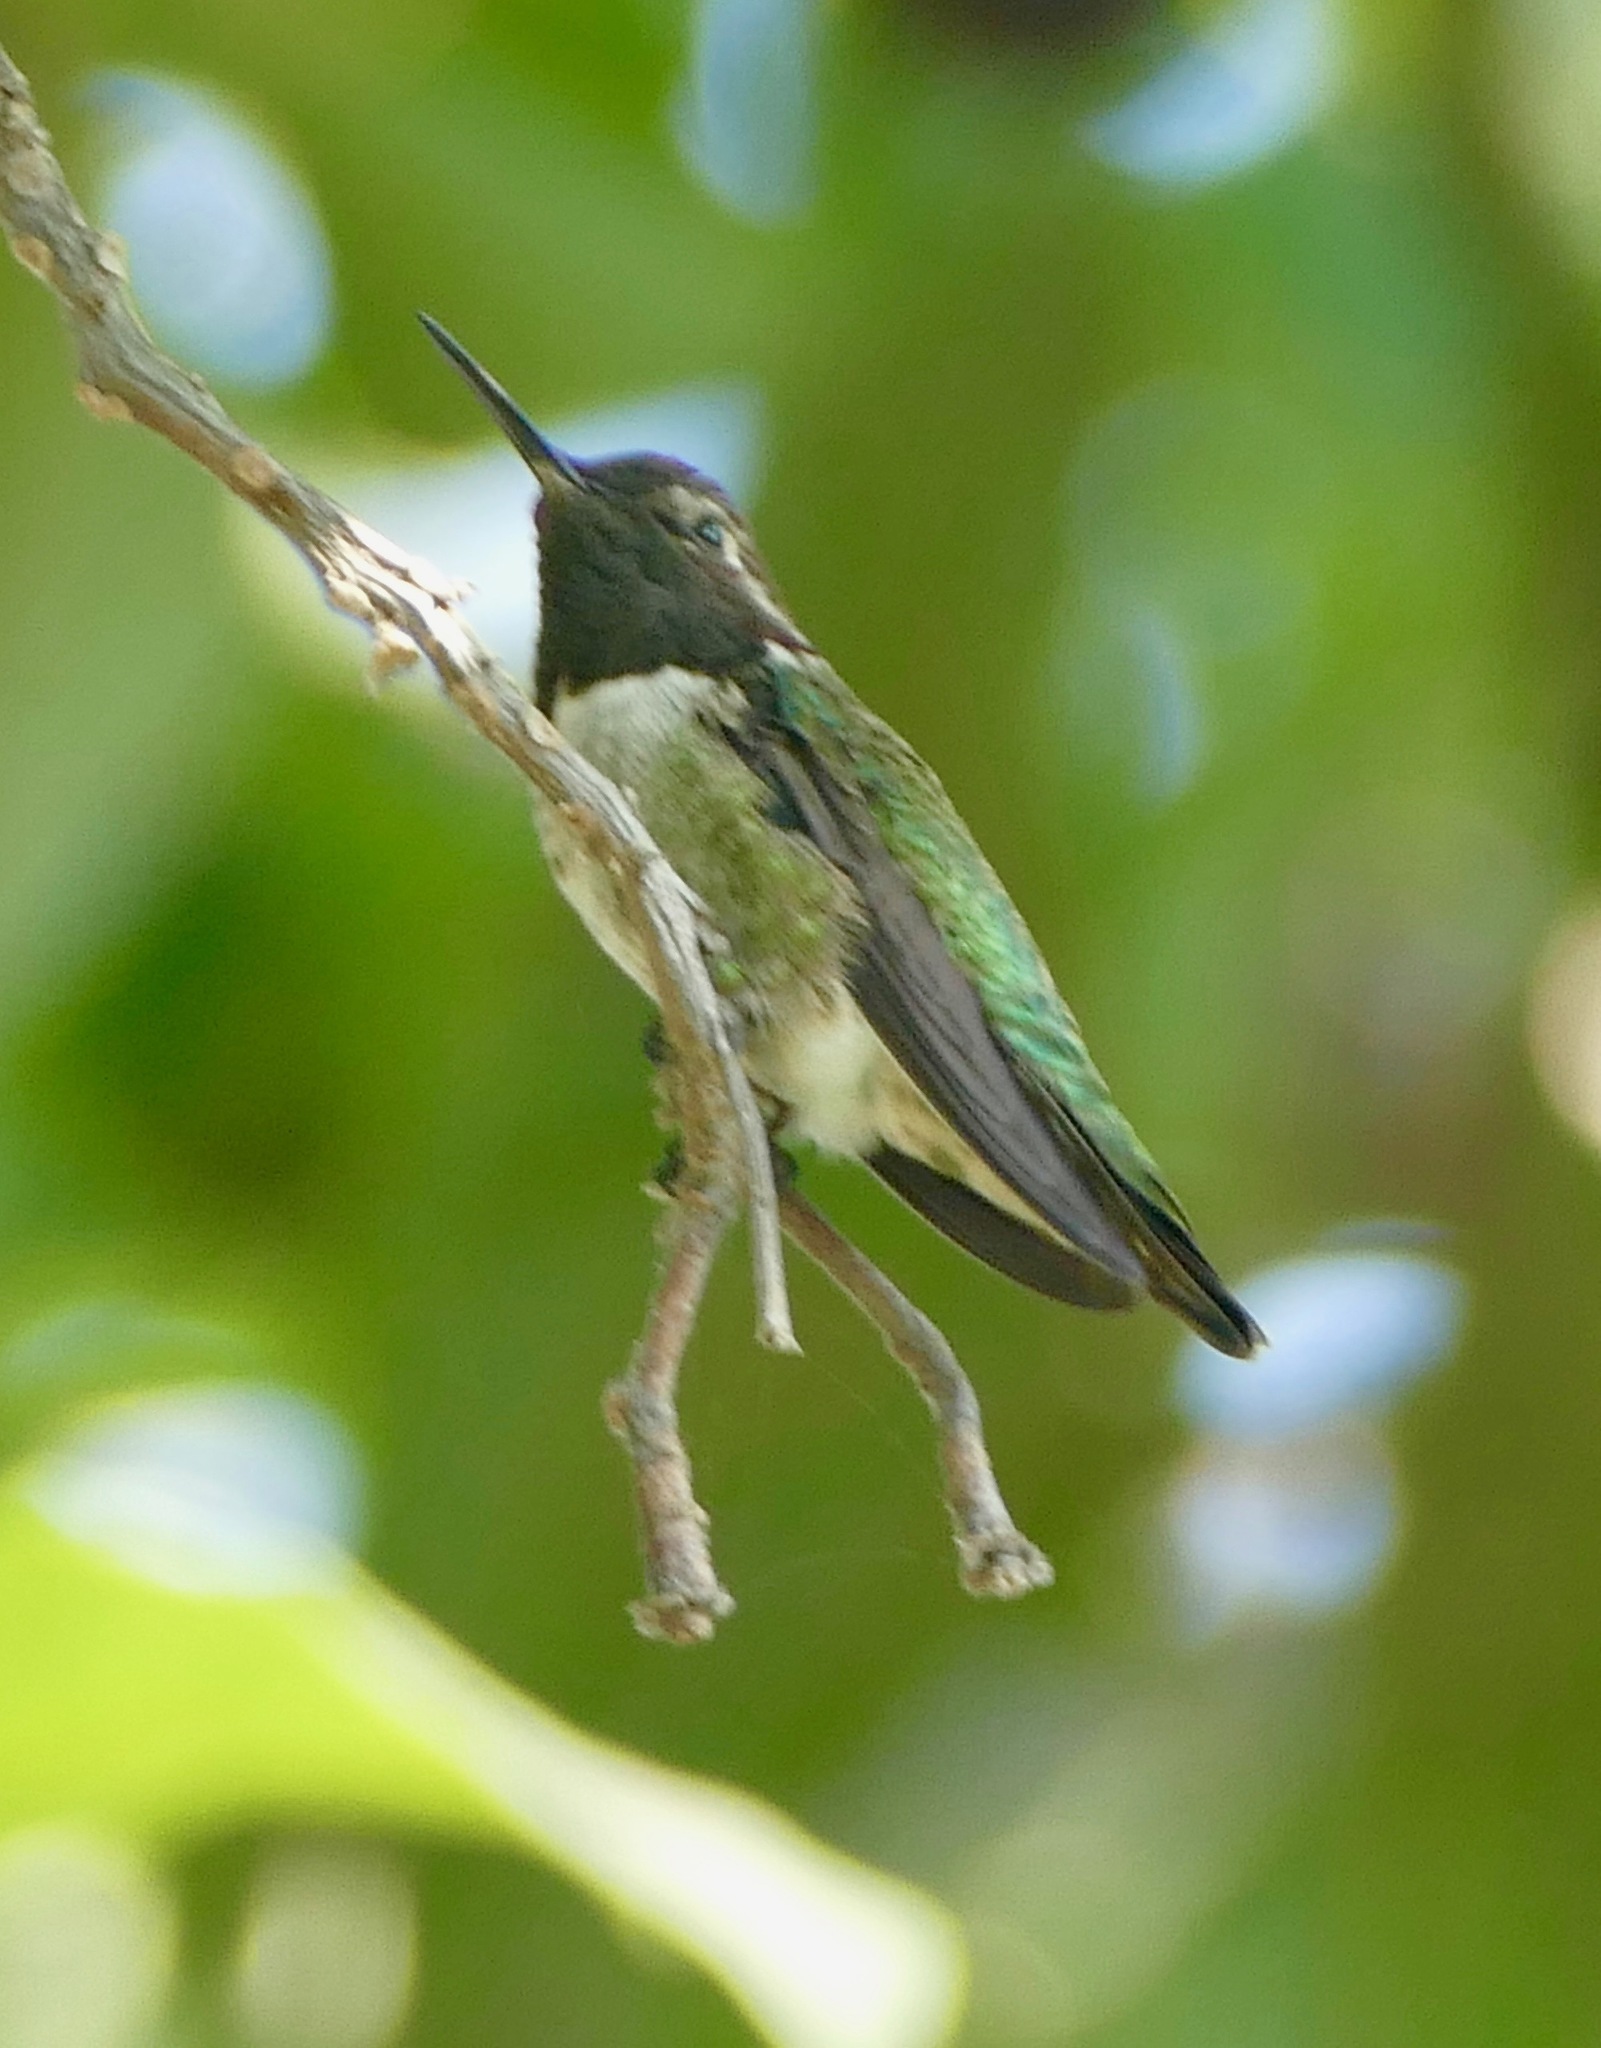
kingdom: Animalia
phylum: Chordata
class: Aves
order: Apodiformes
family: Trochilidae
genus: Calypte
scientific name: Calypte anna
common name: Anna's hummingbird
